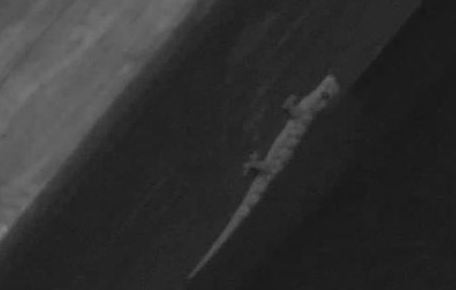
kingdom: Animalia
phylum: Chordata
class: Squamata
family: Gekkonidae
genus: Hemidactylus
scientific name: Hemidactylus mabouia
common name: House gecko
